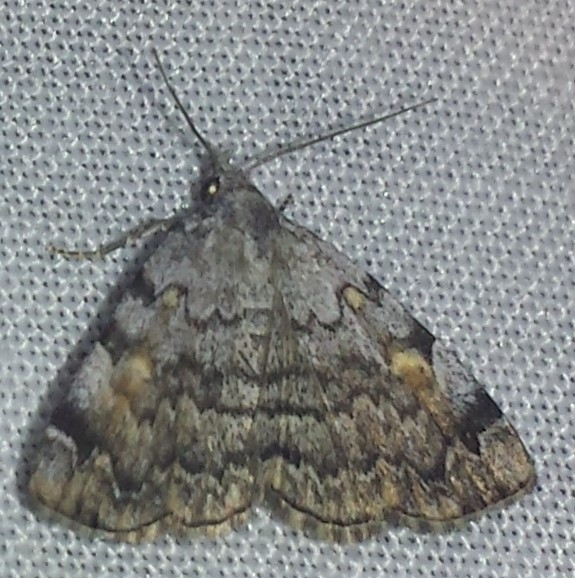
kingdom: Animalia
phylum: Arthropoda
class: Insecta
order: Lepidoptera
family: Erebidae
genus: Idia
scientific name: Idia americalis
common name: American idia moth
